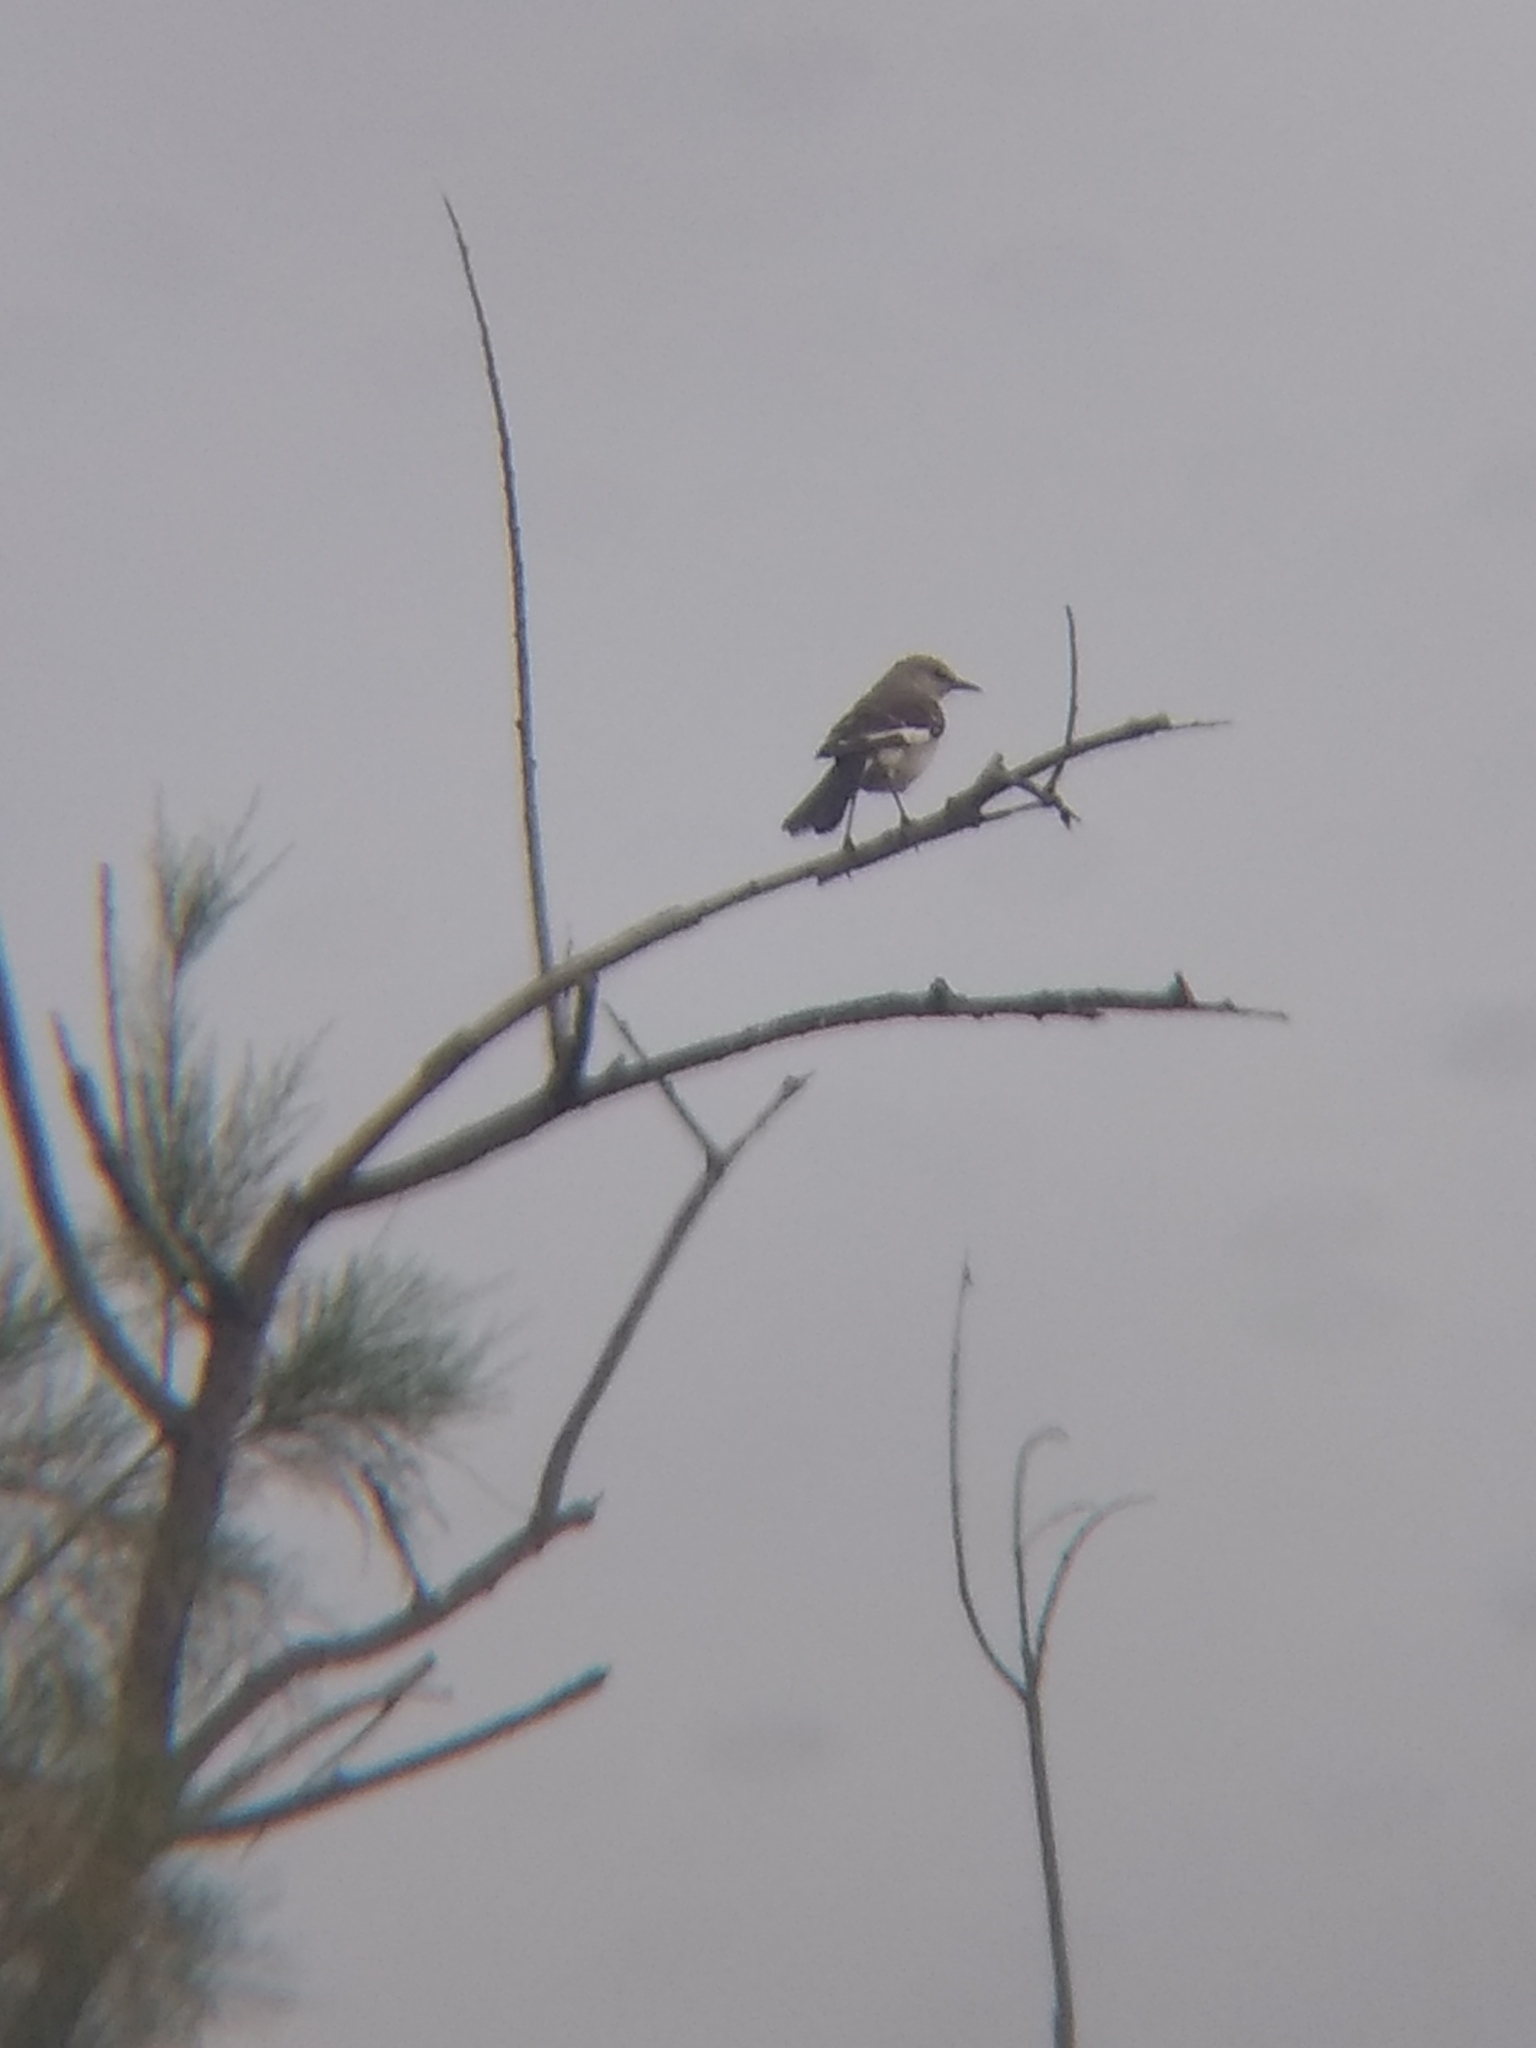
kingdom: Animalia
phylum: Chordata
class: Aves
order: Passeriformes
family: Mimidae
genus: Mimus
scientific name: Mimus polyglottos
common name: Northern mockingbird
